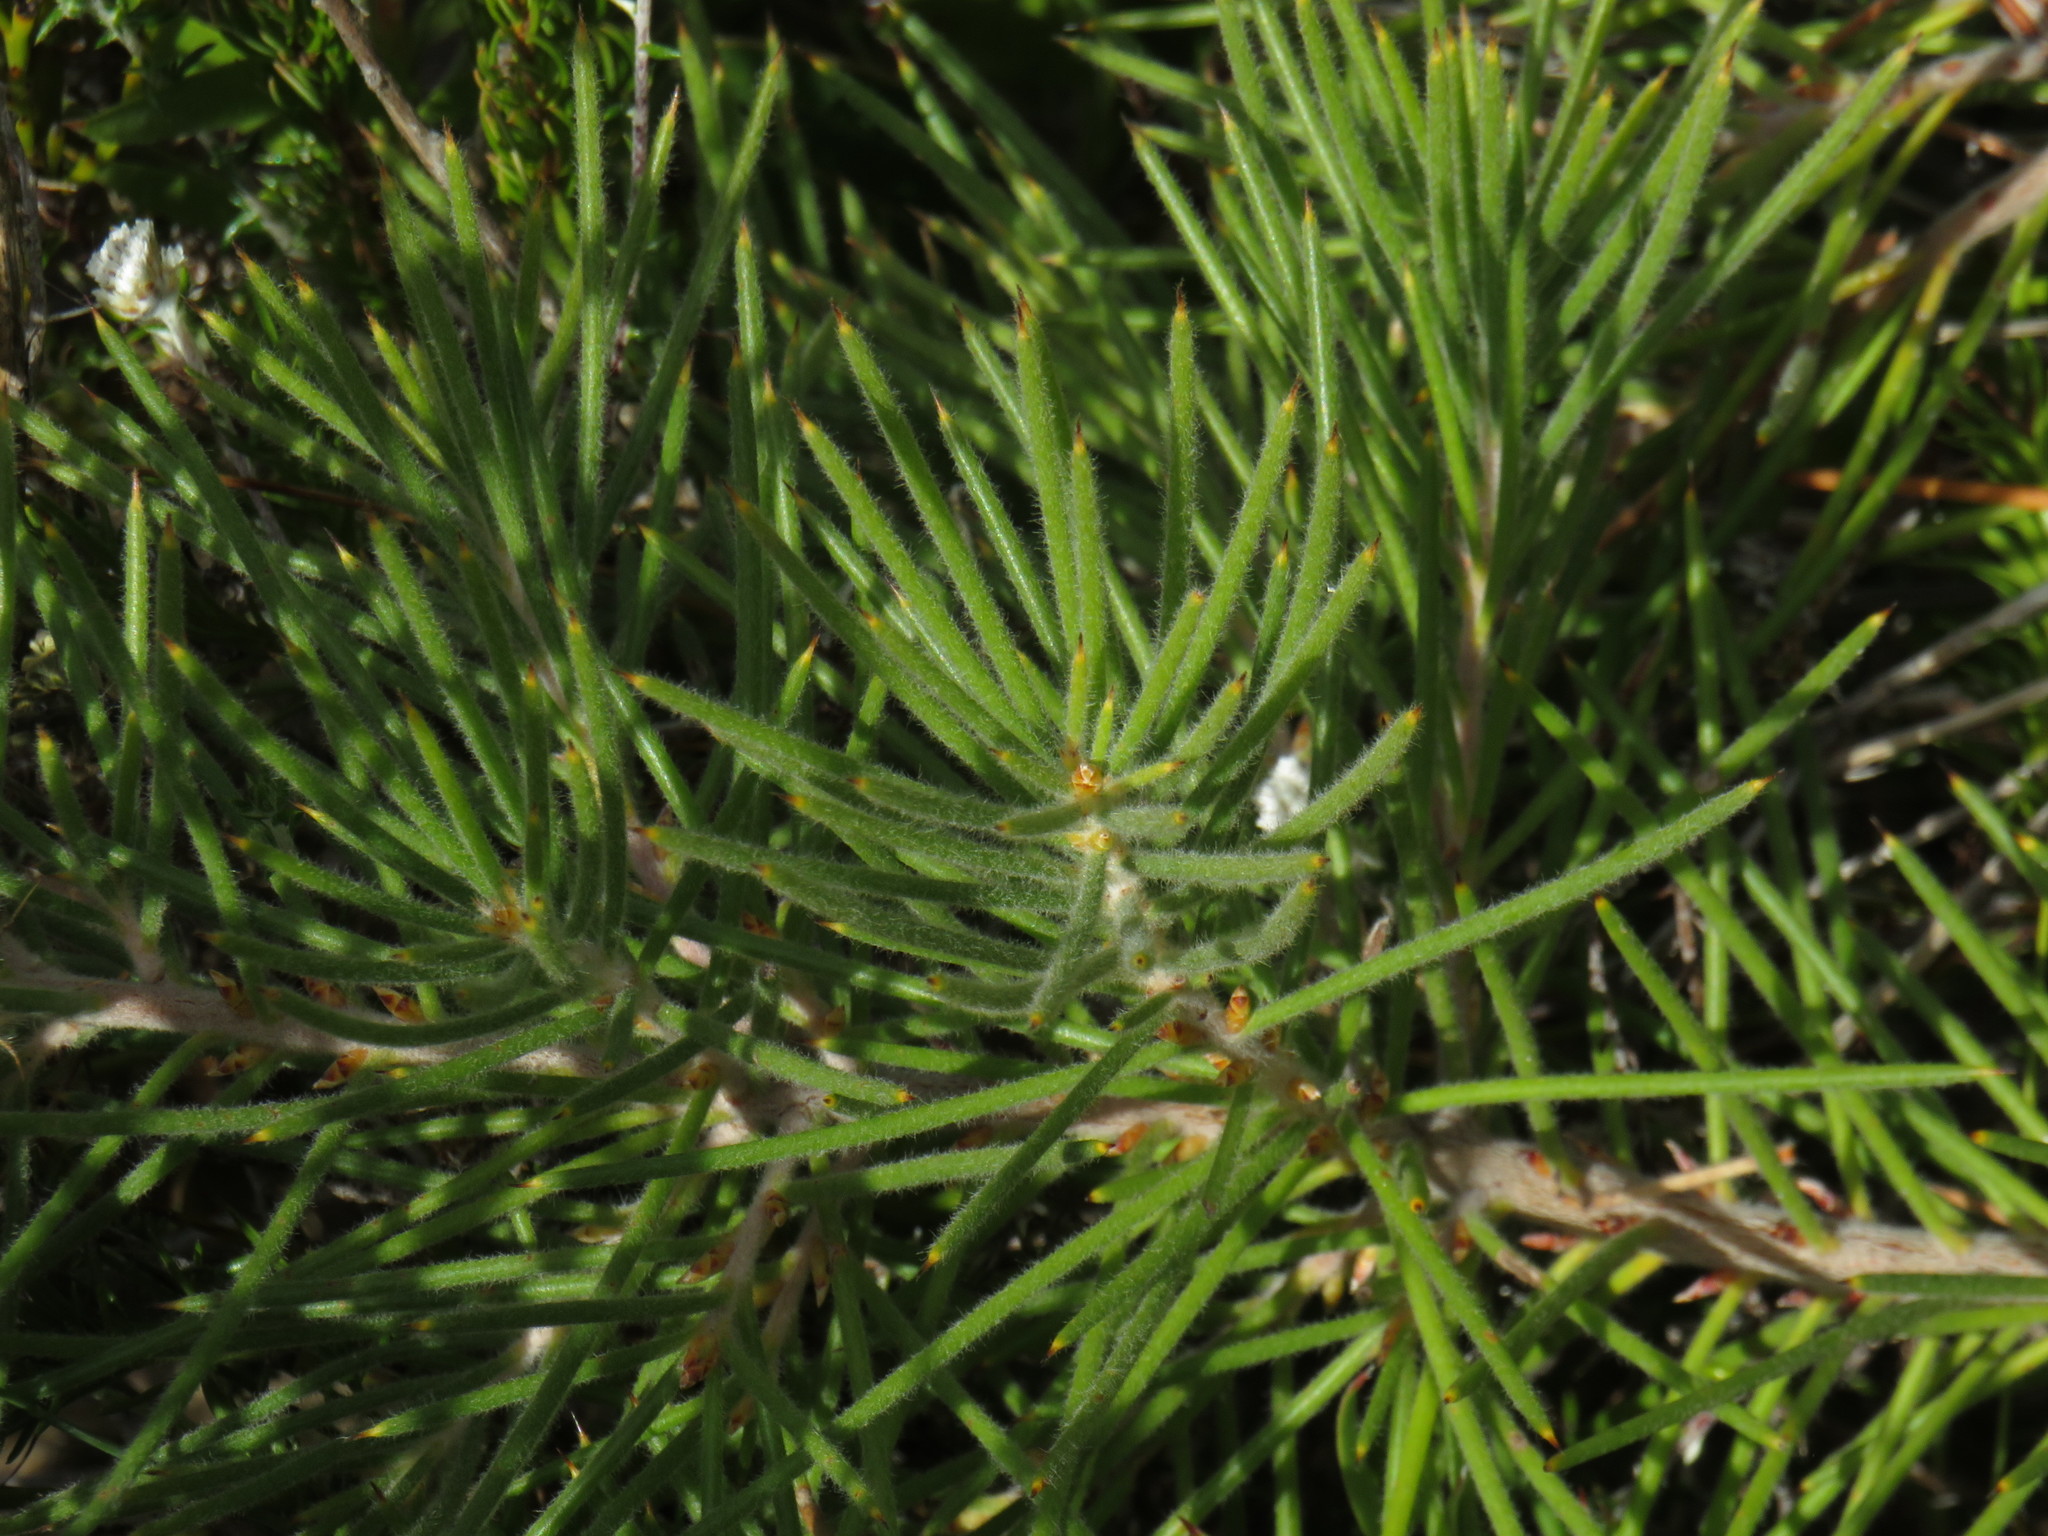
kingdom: Plantae
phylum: Tracheophyta
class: Magnoliopsida
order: Proteales
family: Proteaceae
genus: Hakea
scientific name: Hakea gibbosa
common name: Rock hakea
